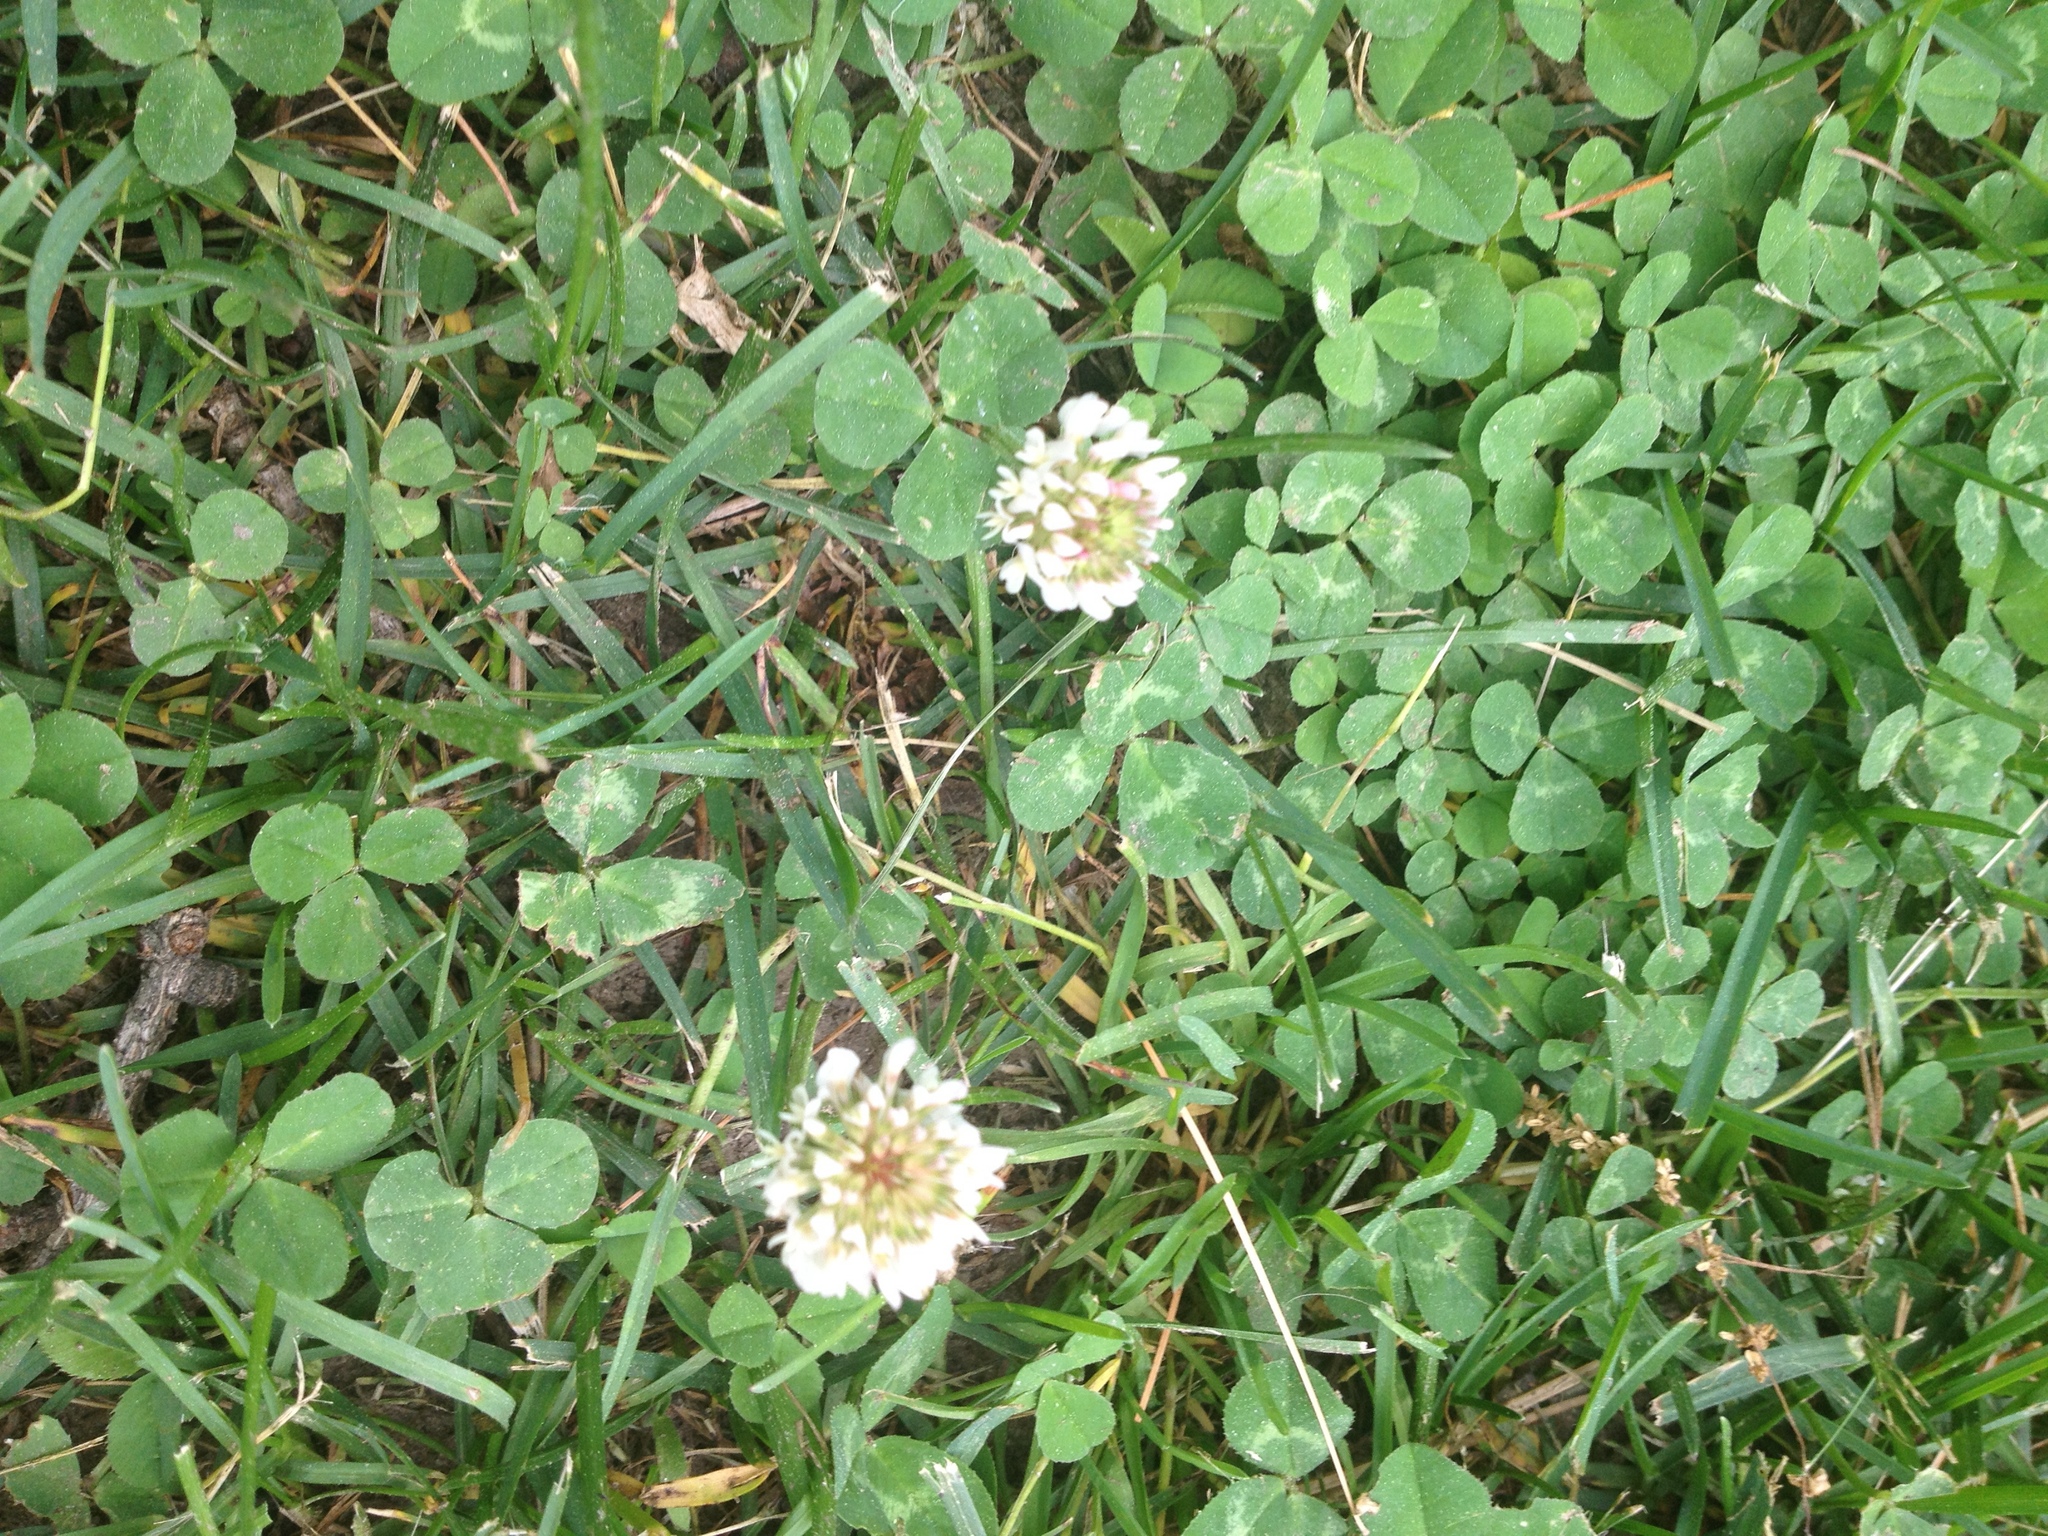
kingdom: Plantae
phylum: Tracheophyta
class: Magnoliopsida
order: Fabales
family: Fabaceae
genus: Trifolium
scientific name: Trifolium repens
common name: White clover
